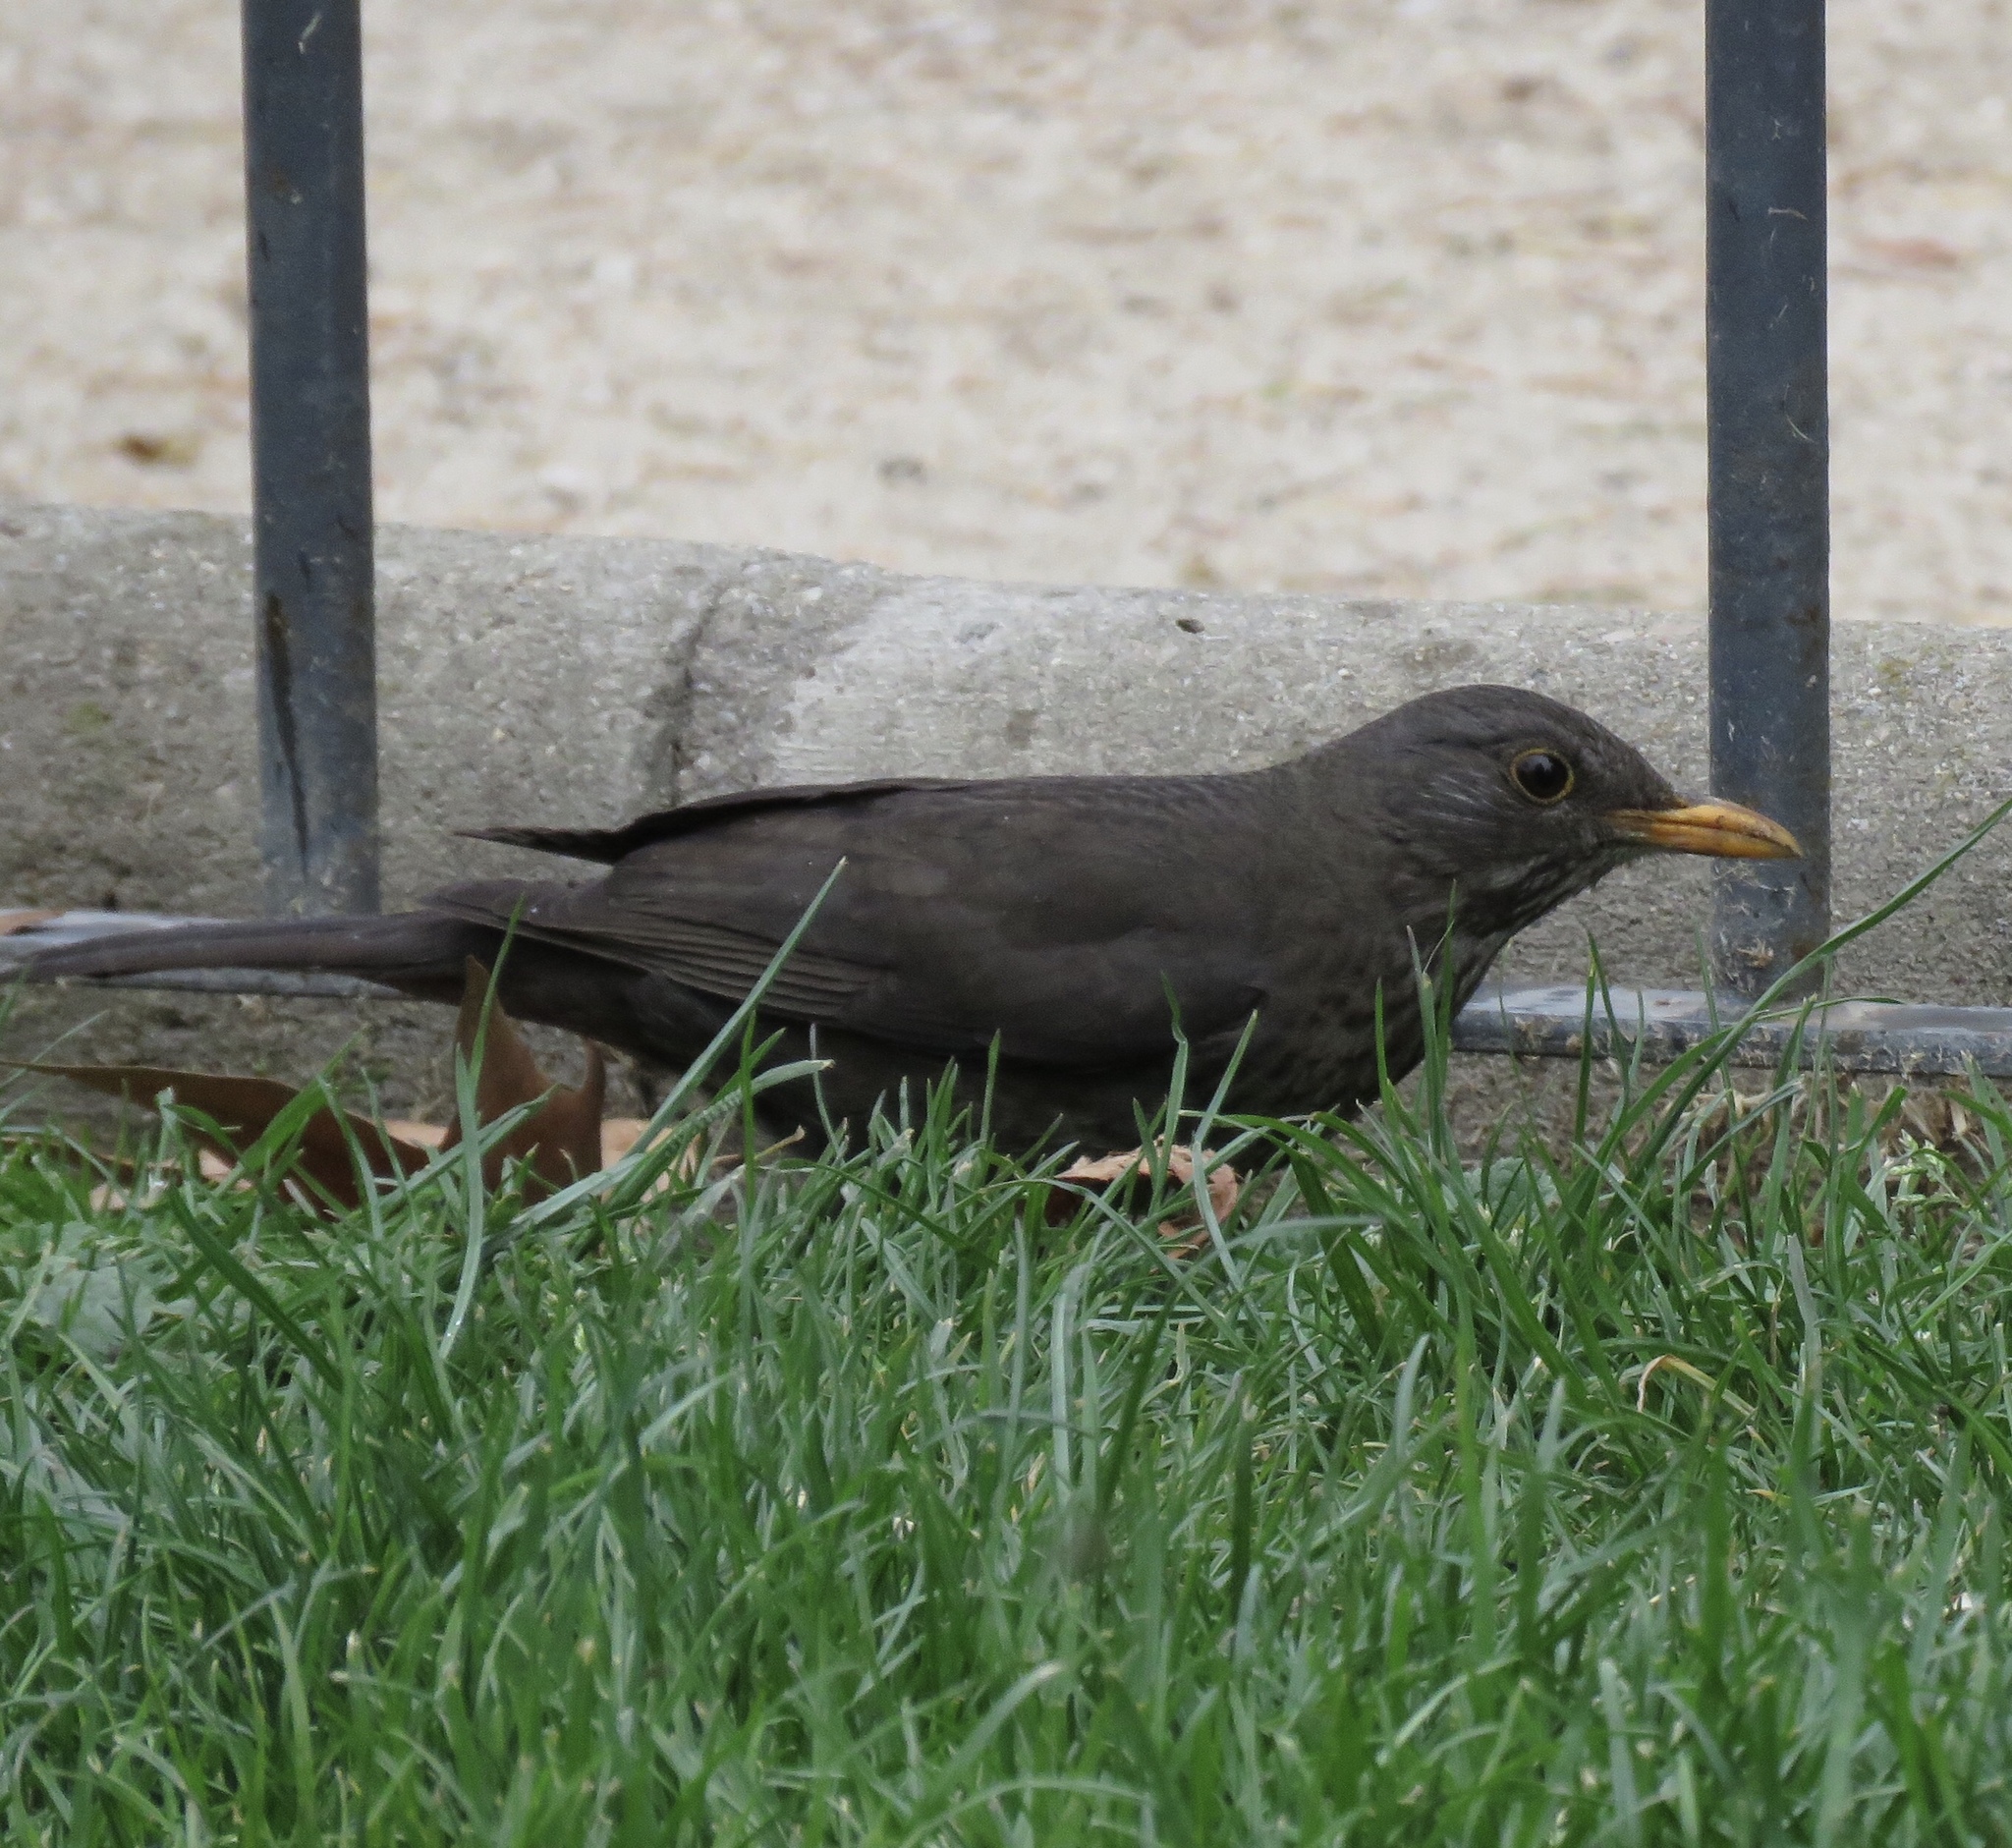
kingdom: Animalia
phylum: Chordata
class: Aves
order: Passeriformes
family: Turdidae
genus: Turdus
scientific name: Turdus merula
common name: Common blackbird
